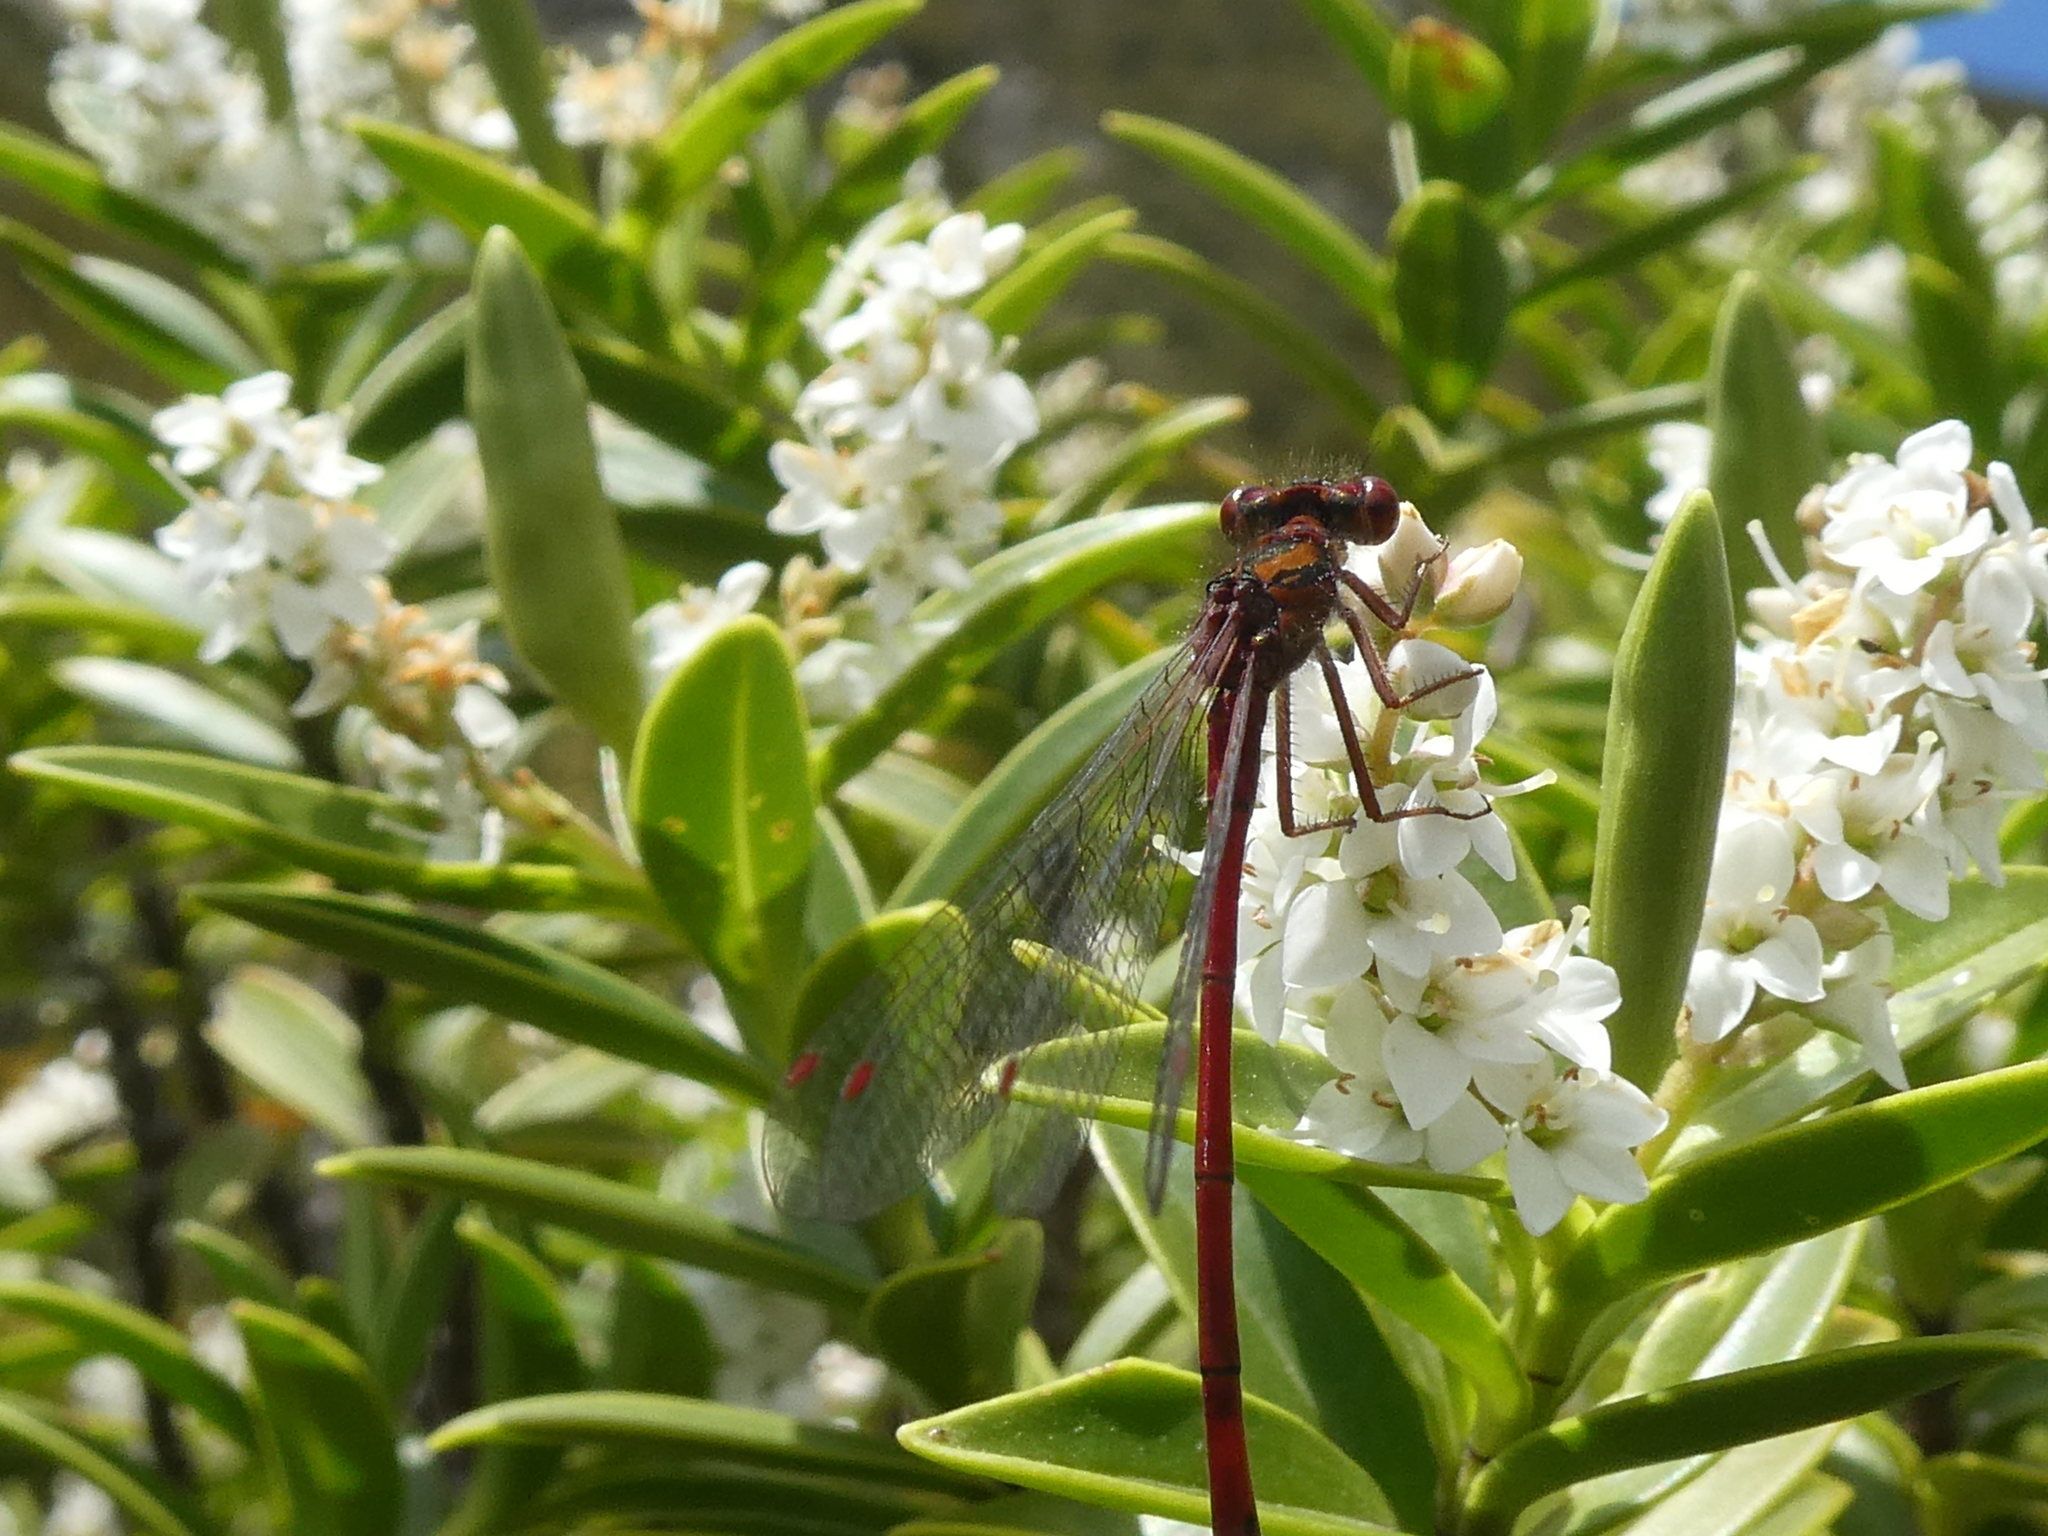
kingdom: Animalia
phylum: Arthropoda
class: Insecta
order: Odonata
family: Coenagrionidae
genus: Xanthocnemis
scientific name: Xanthocnemis zealandica
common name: Common redcoat damselfly
